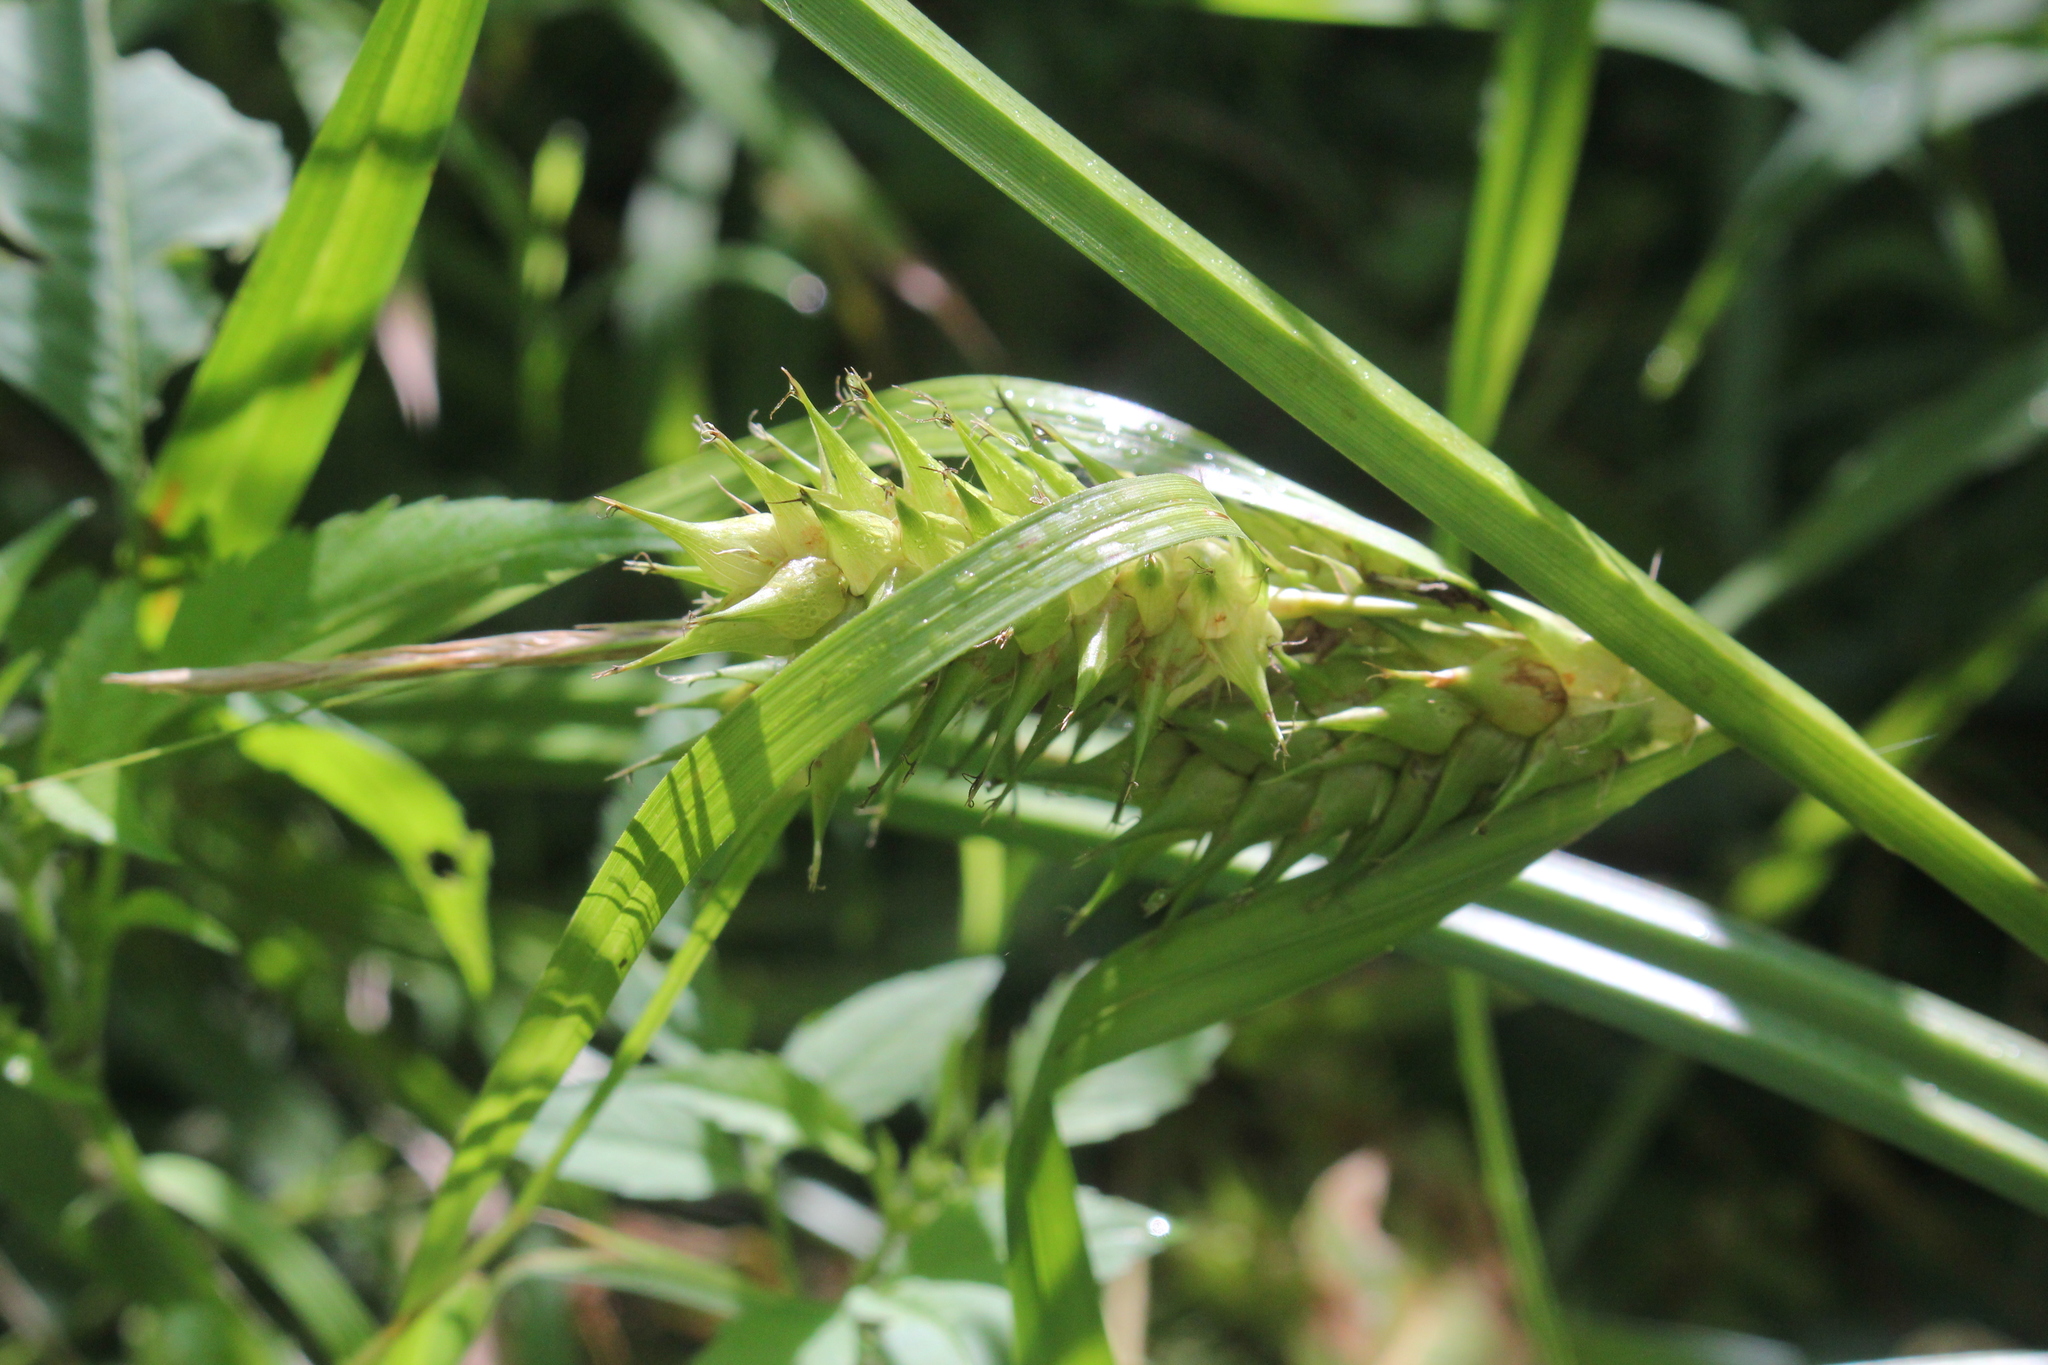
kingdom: Plantae
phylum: Tracheophyta
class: Liliopsida
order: Poales
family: Cyperaceae
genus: Carex
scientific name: Carex lupulina
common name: Hop sedge
